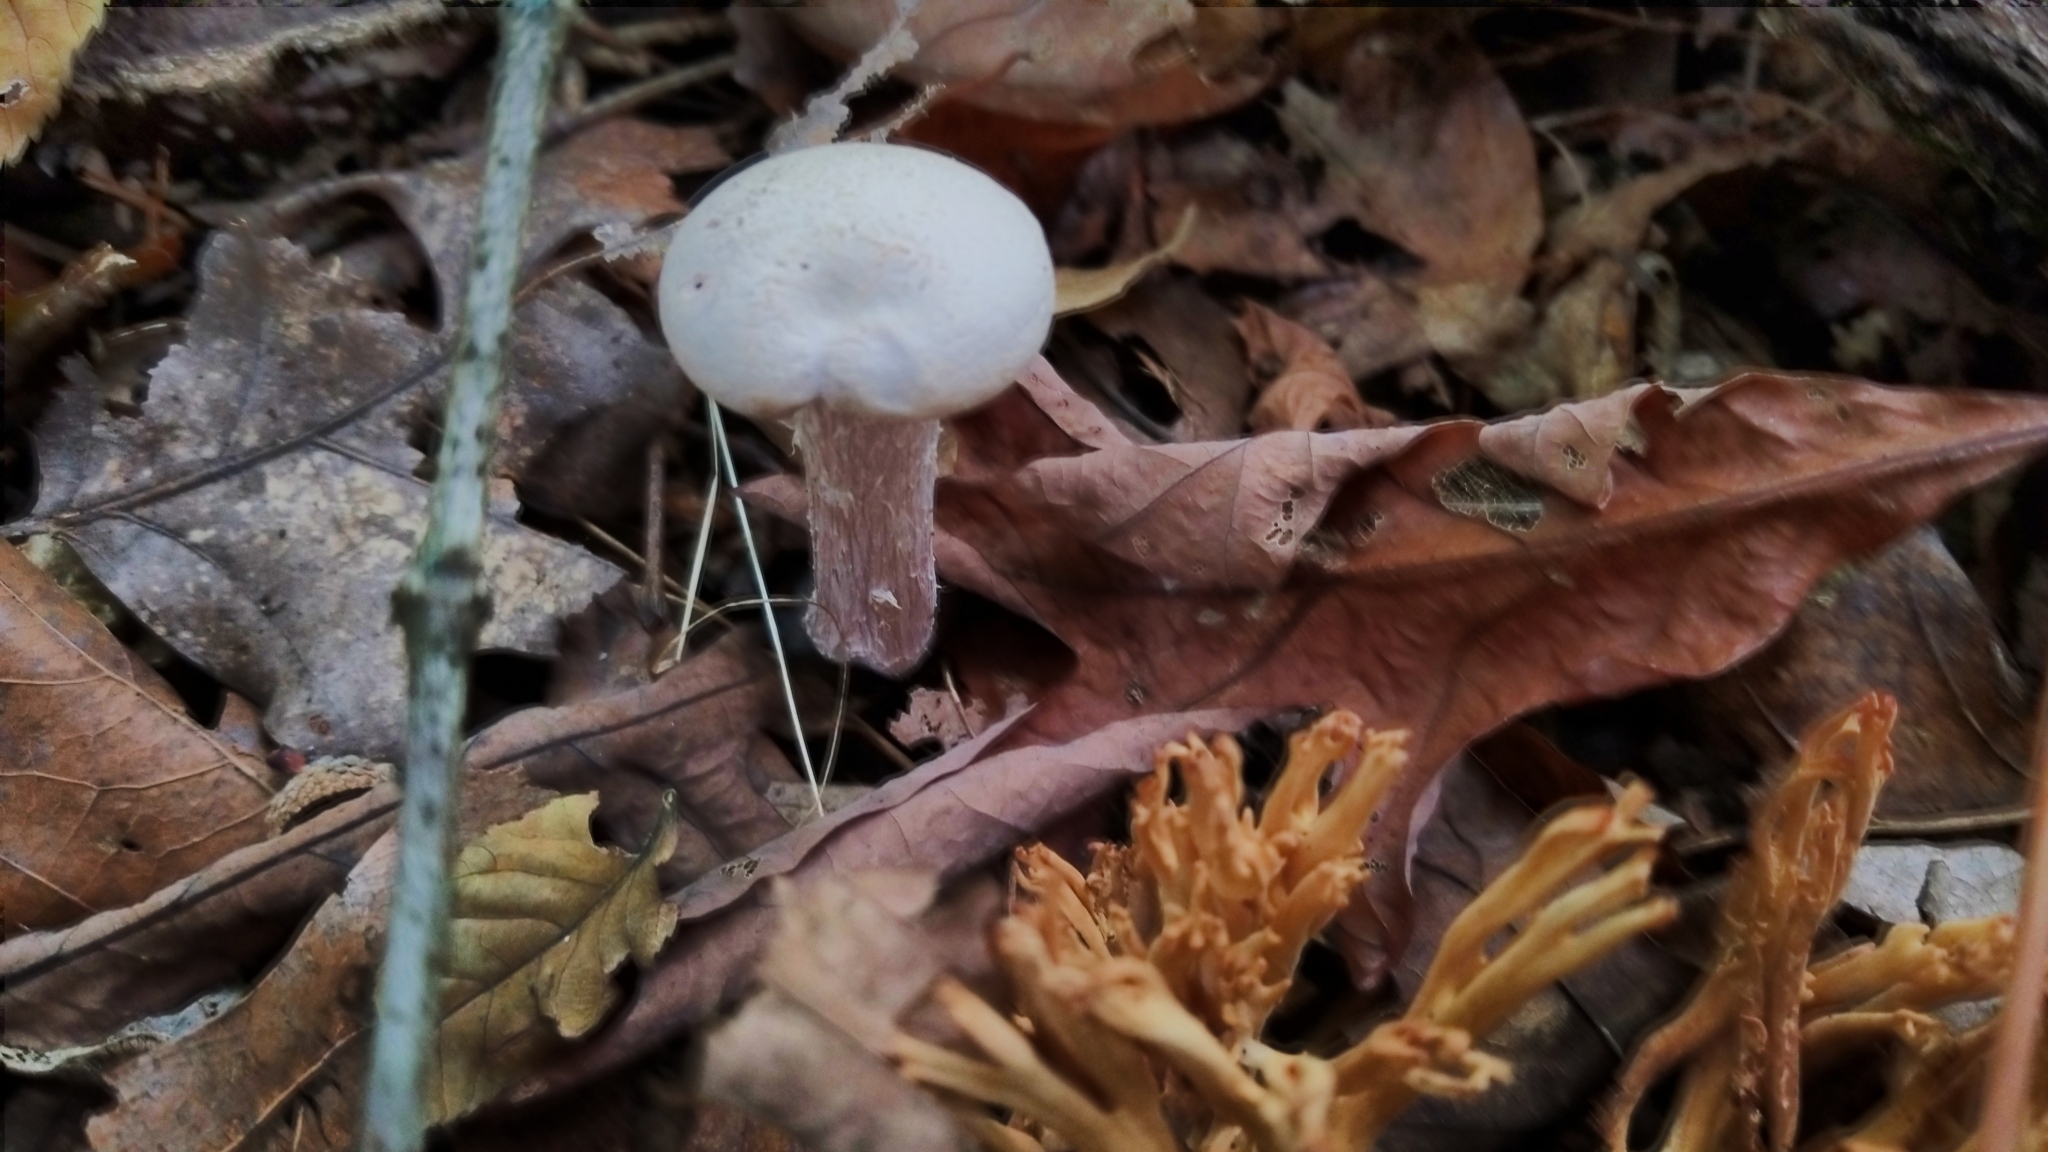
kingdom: Fungi
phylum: Basidiomycota
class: Agaricomycetes
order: Agaricales
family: Hydnangiaceae
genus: Laccaria
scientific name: Laccaria ochropurpurea
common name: Purple laccaria
